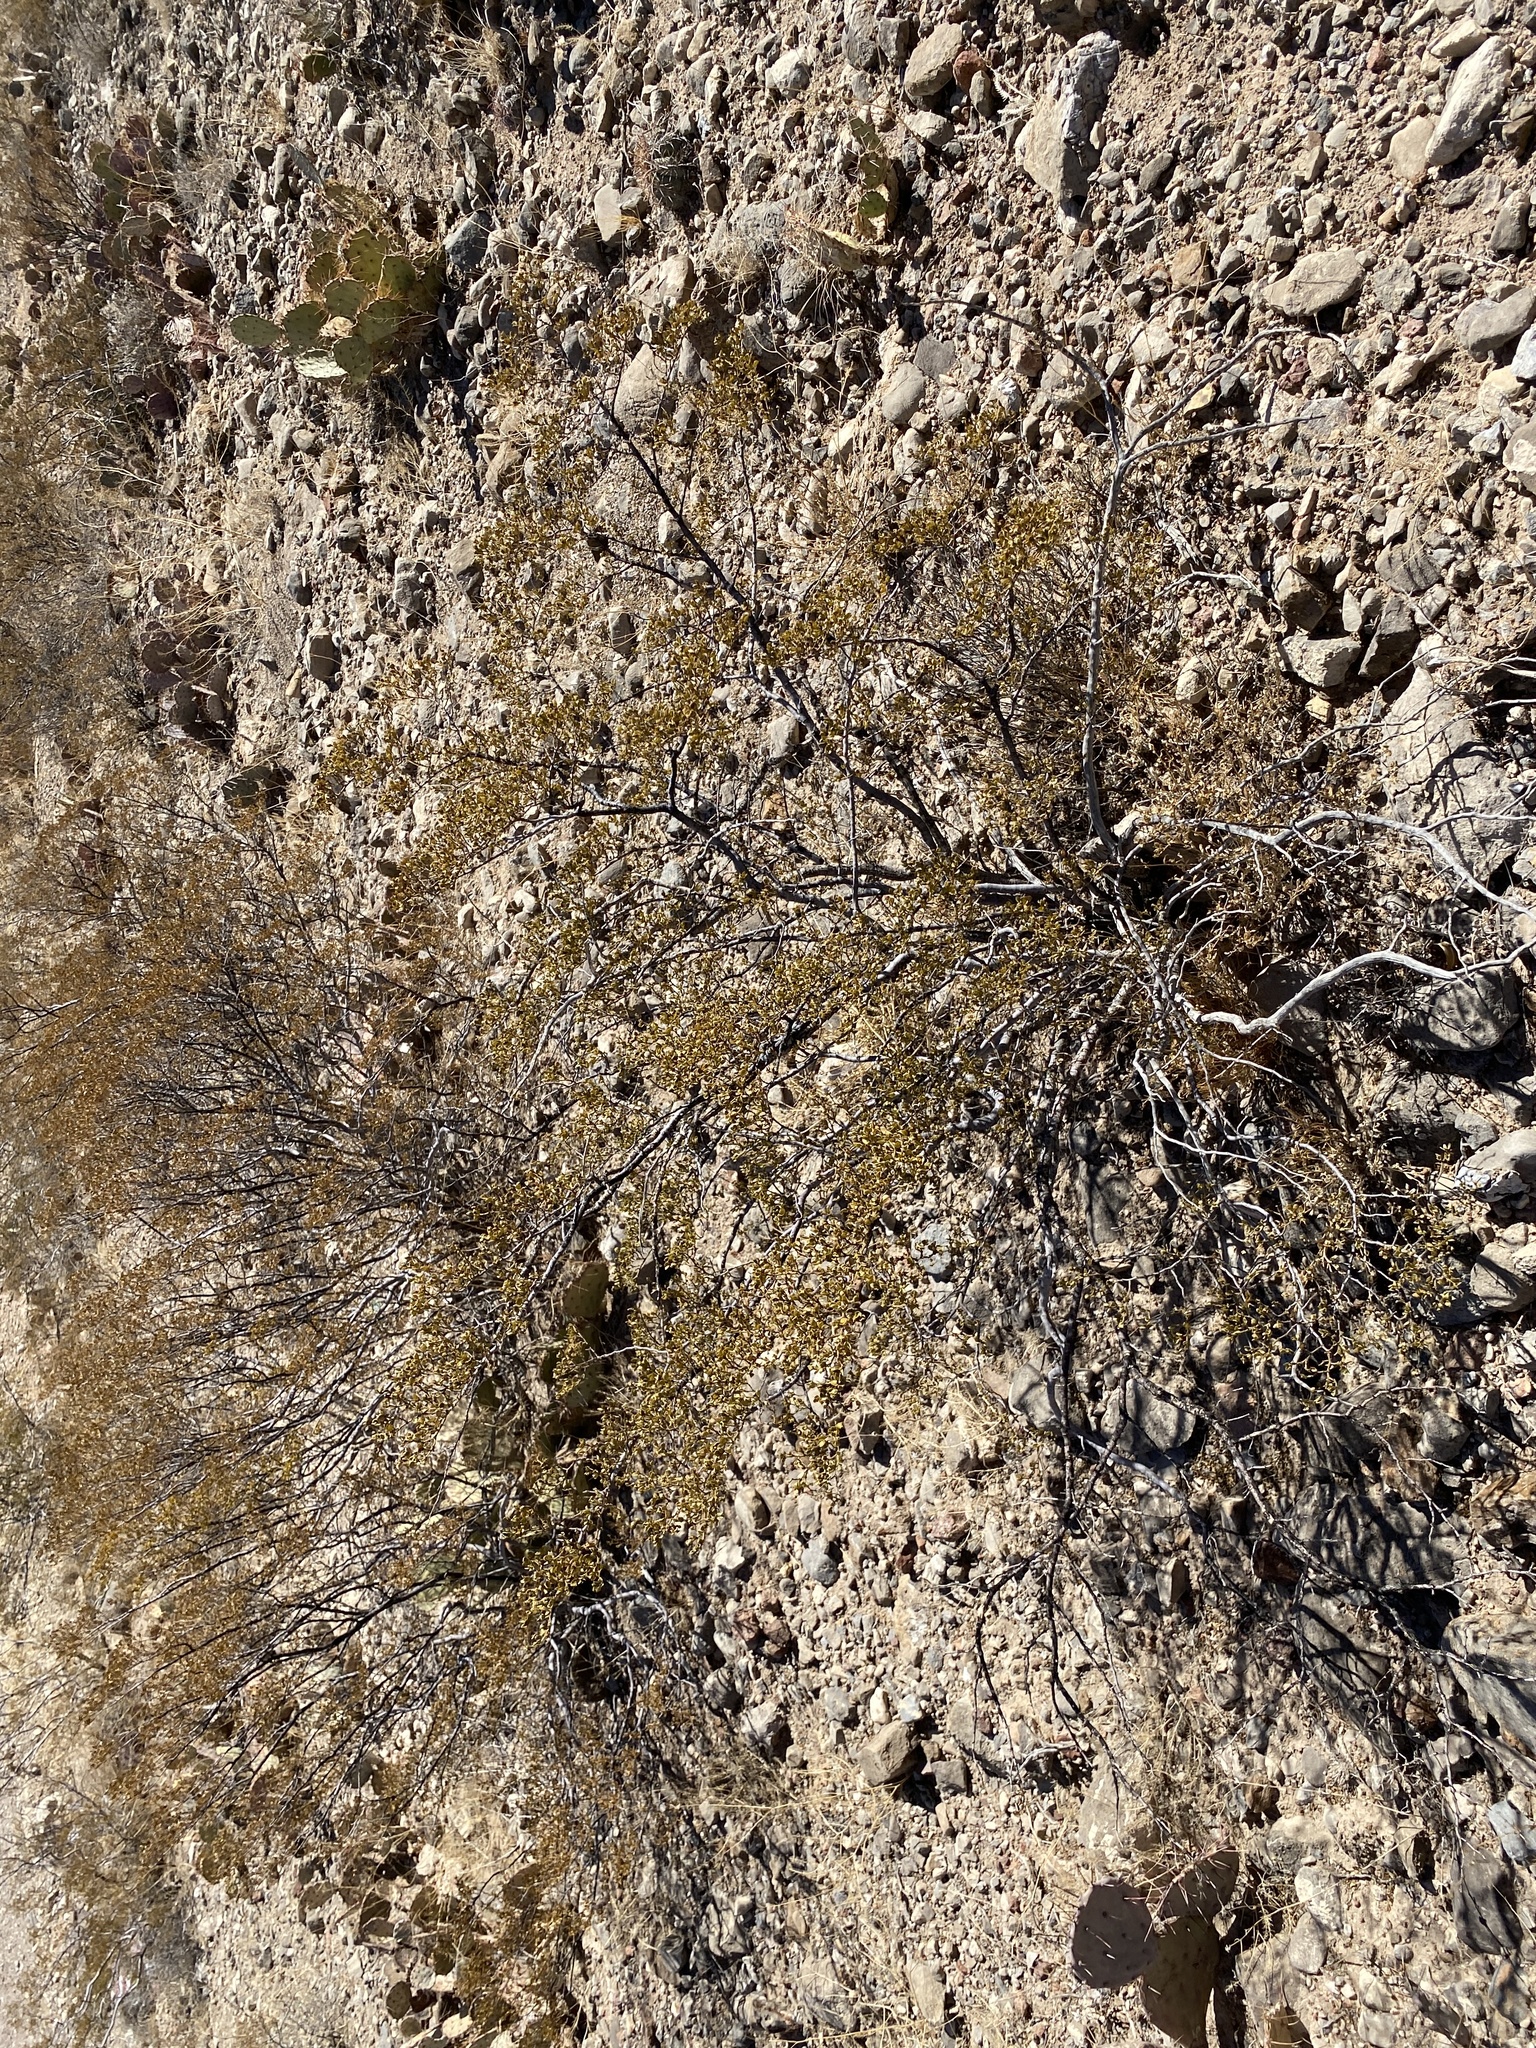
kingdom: Plantae
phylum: Tracheophyta
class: Magnoliopsida
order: Zygophyllales
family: Zygophyllaceae
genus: Larrea
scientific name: Larrea tridentata
